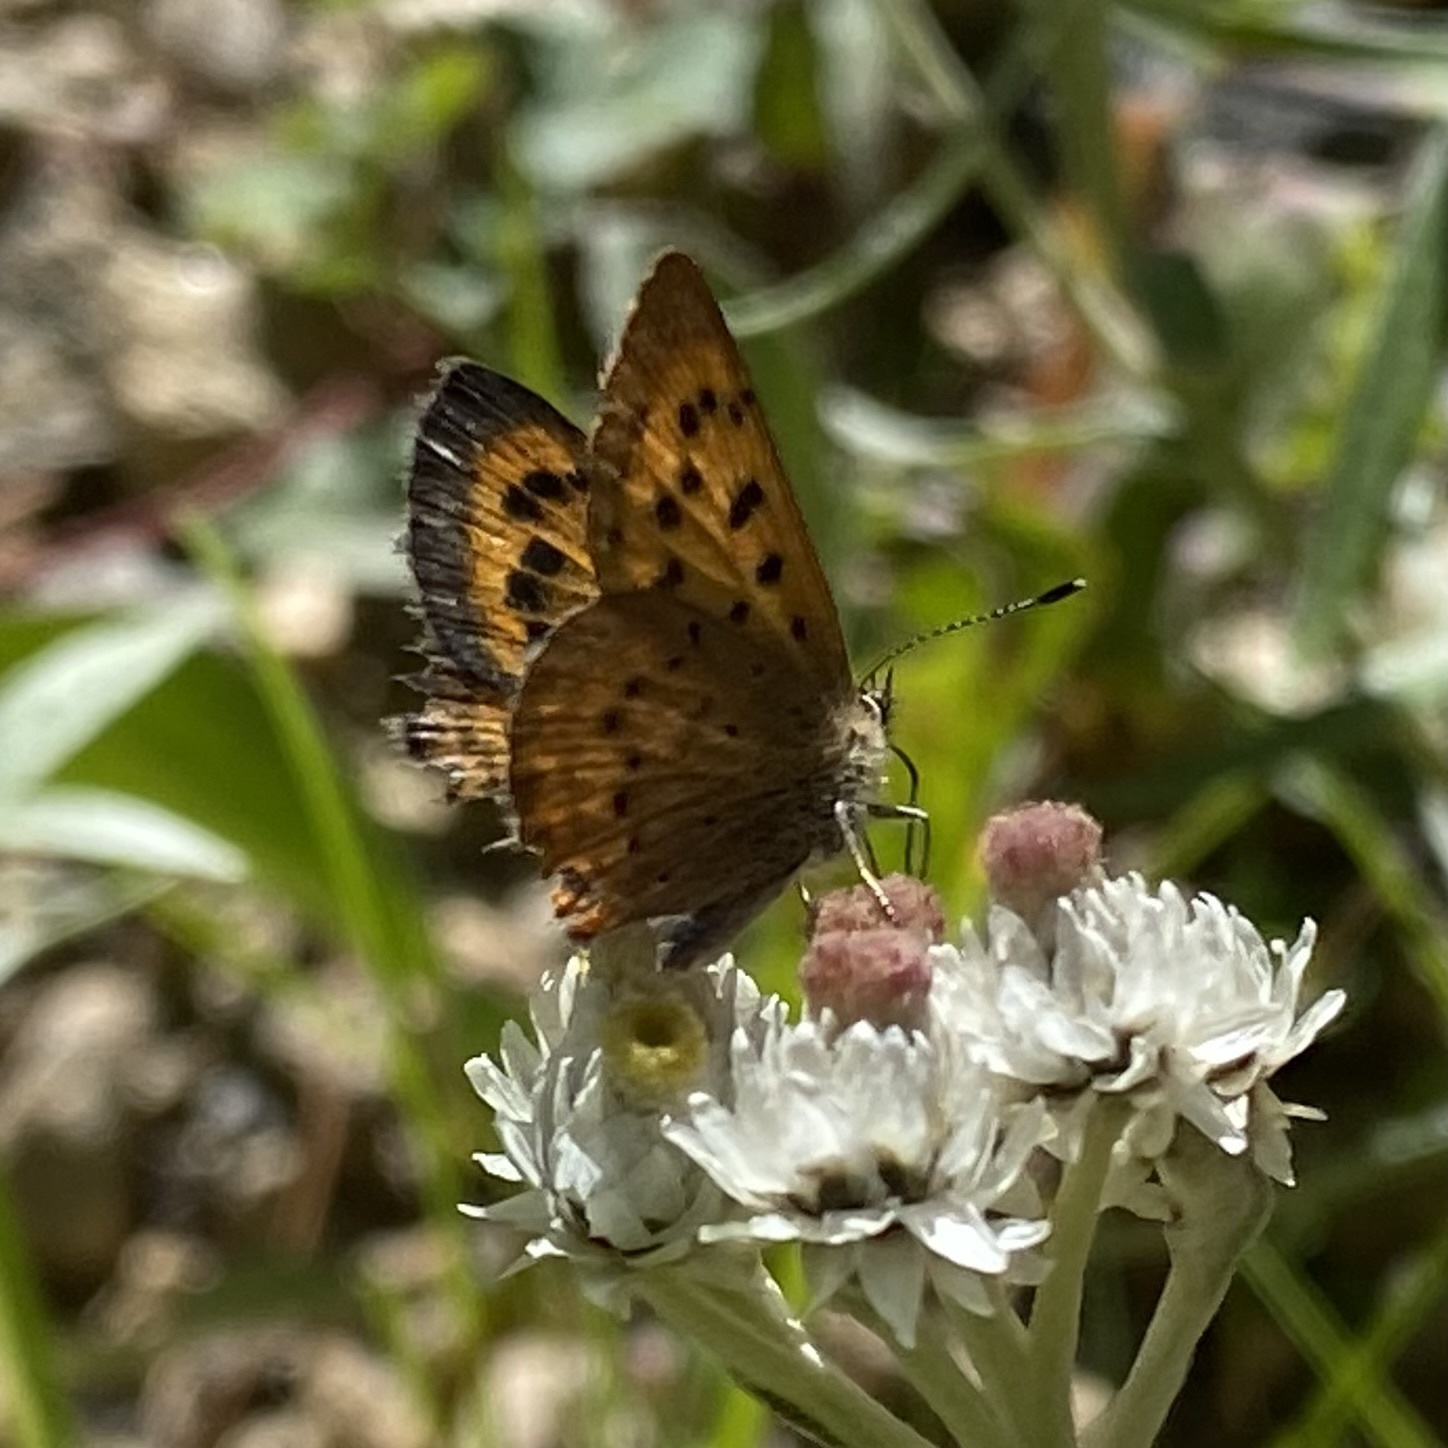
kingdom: Animalia
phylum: Arthropoda
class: Insecta
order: Lepidoptera
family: Lycaenidae
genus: Tharsalea
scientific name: Tharsalea dorcas
